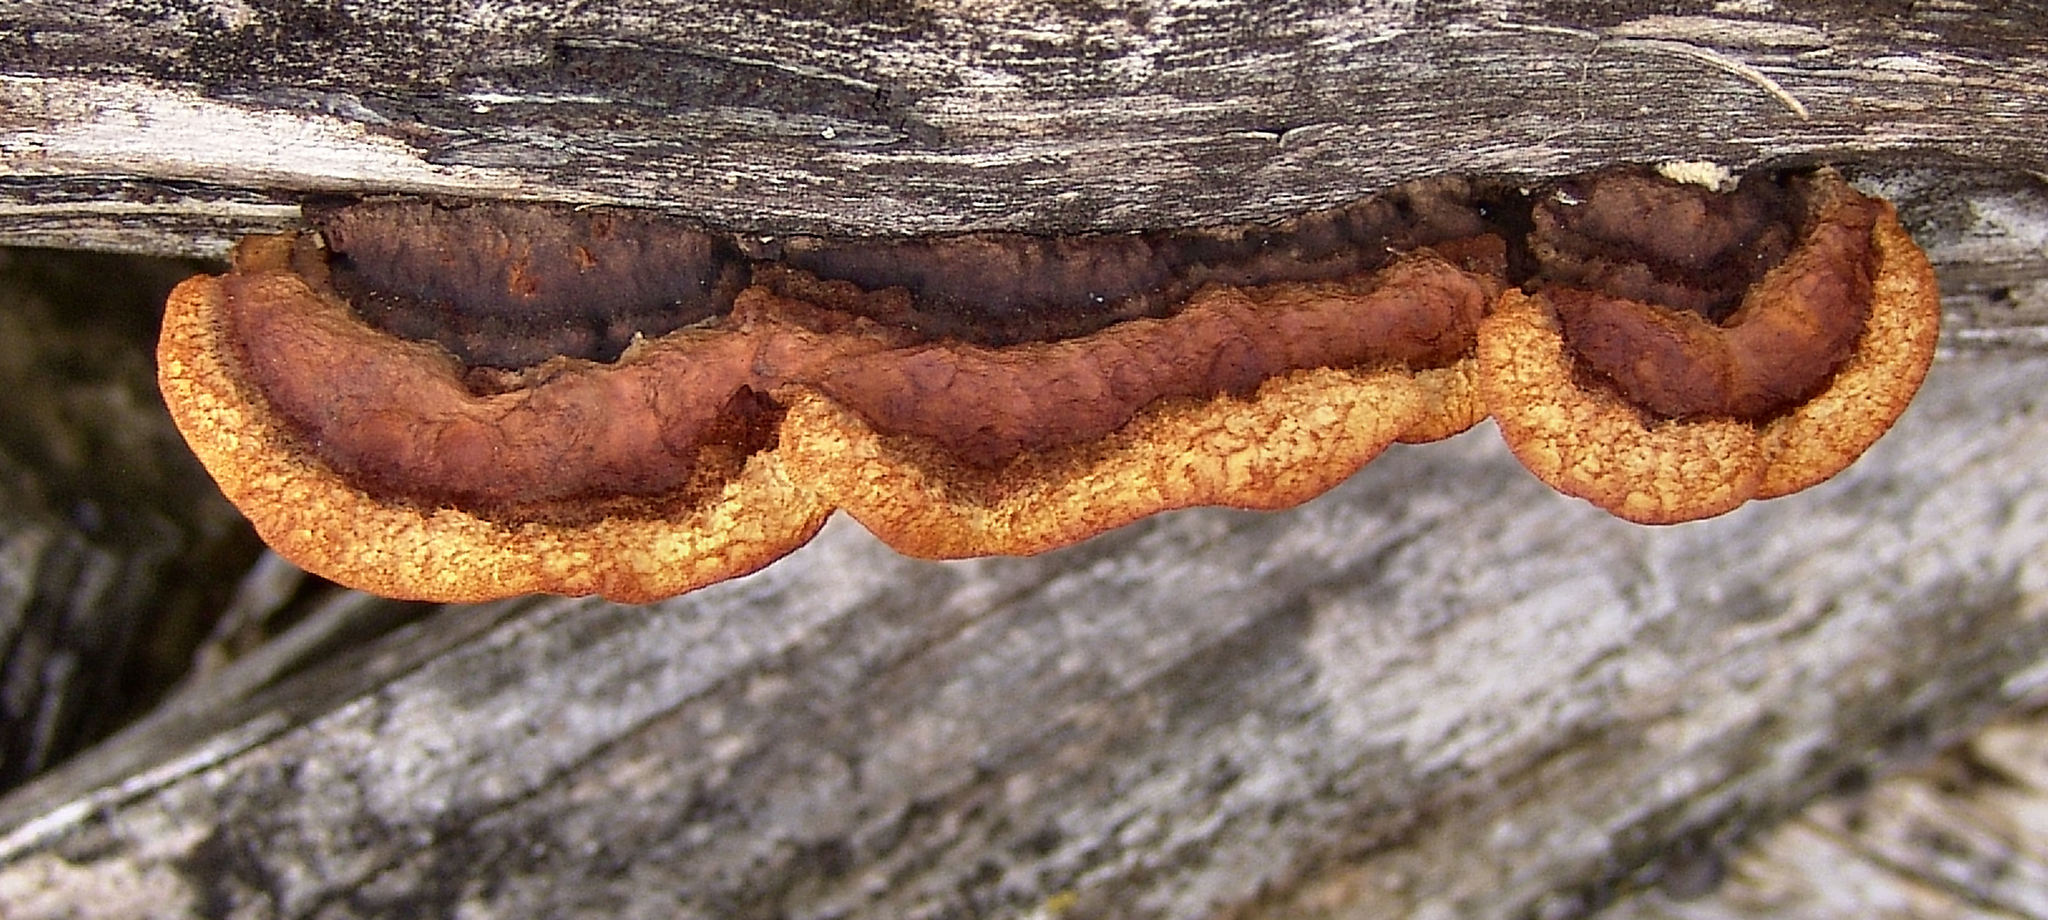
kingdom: Fungi
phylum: Basidiomycota
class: Agaricomycetes
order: Gloeophyllales
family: Gloeophyllaceae
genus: Gloeophyllum
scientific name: Gloeophyllum sepiarium
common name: Conifer mazegill
